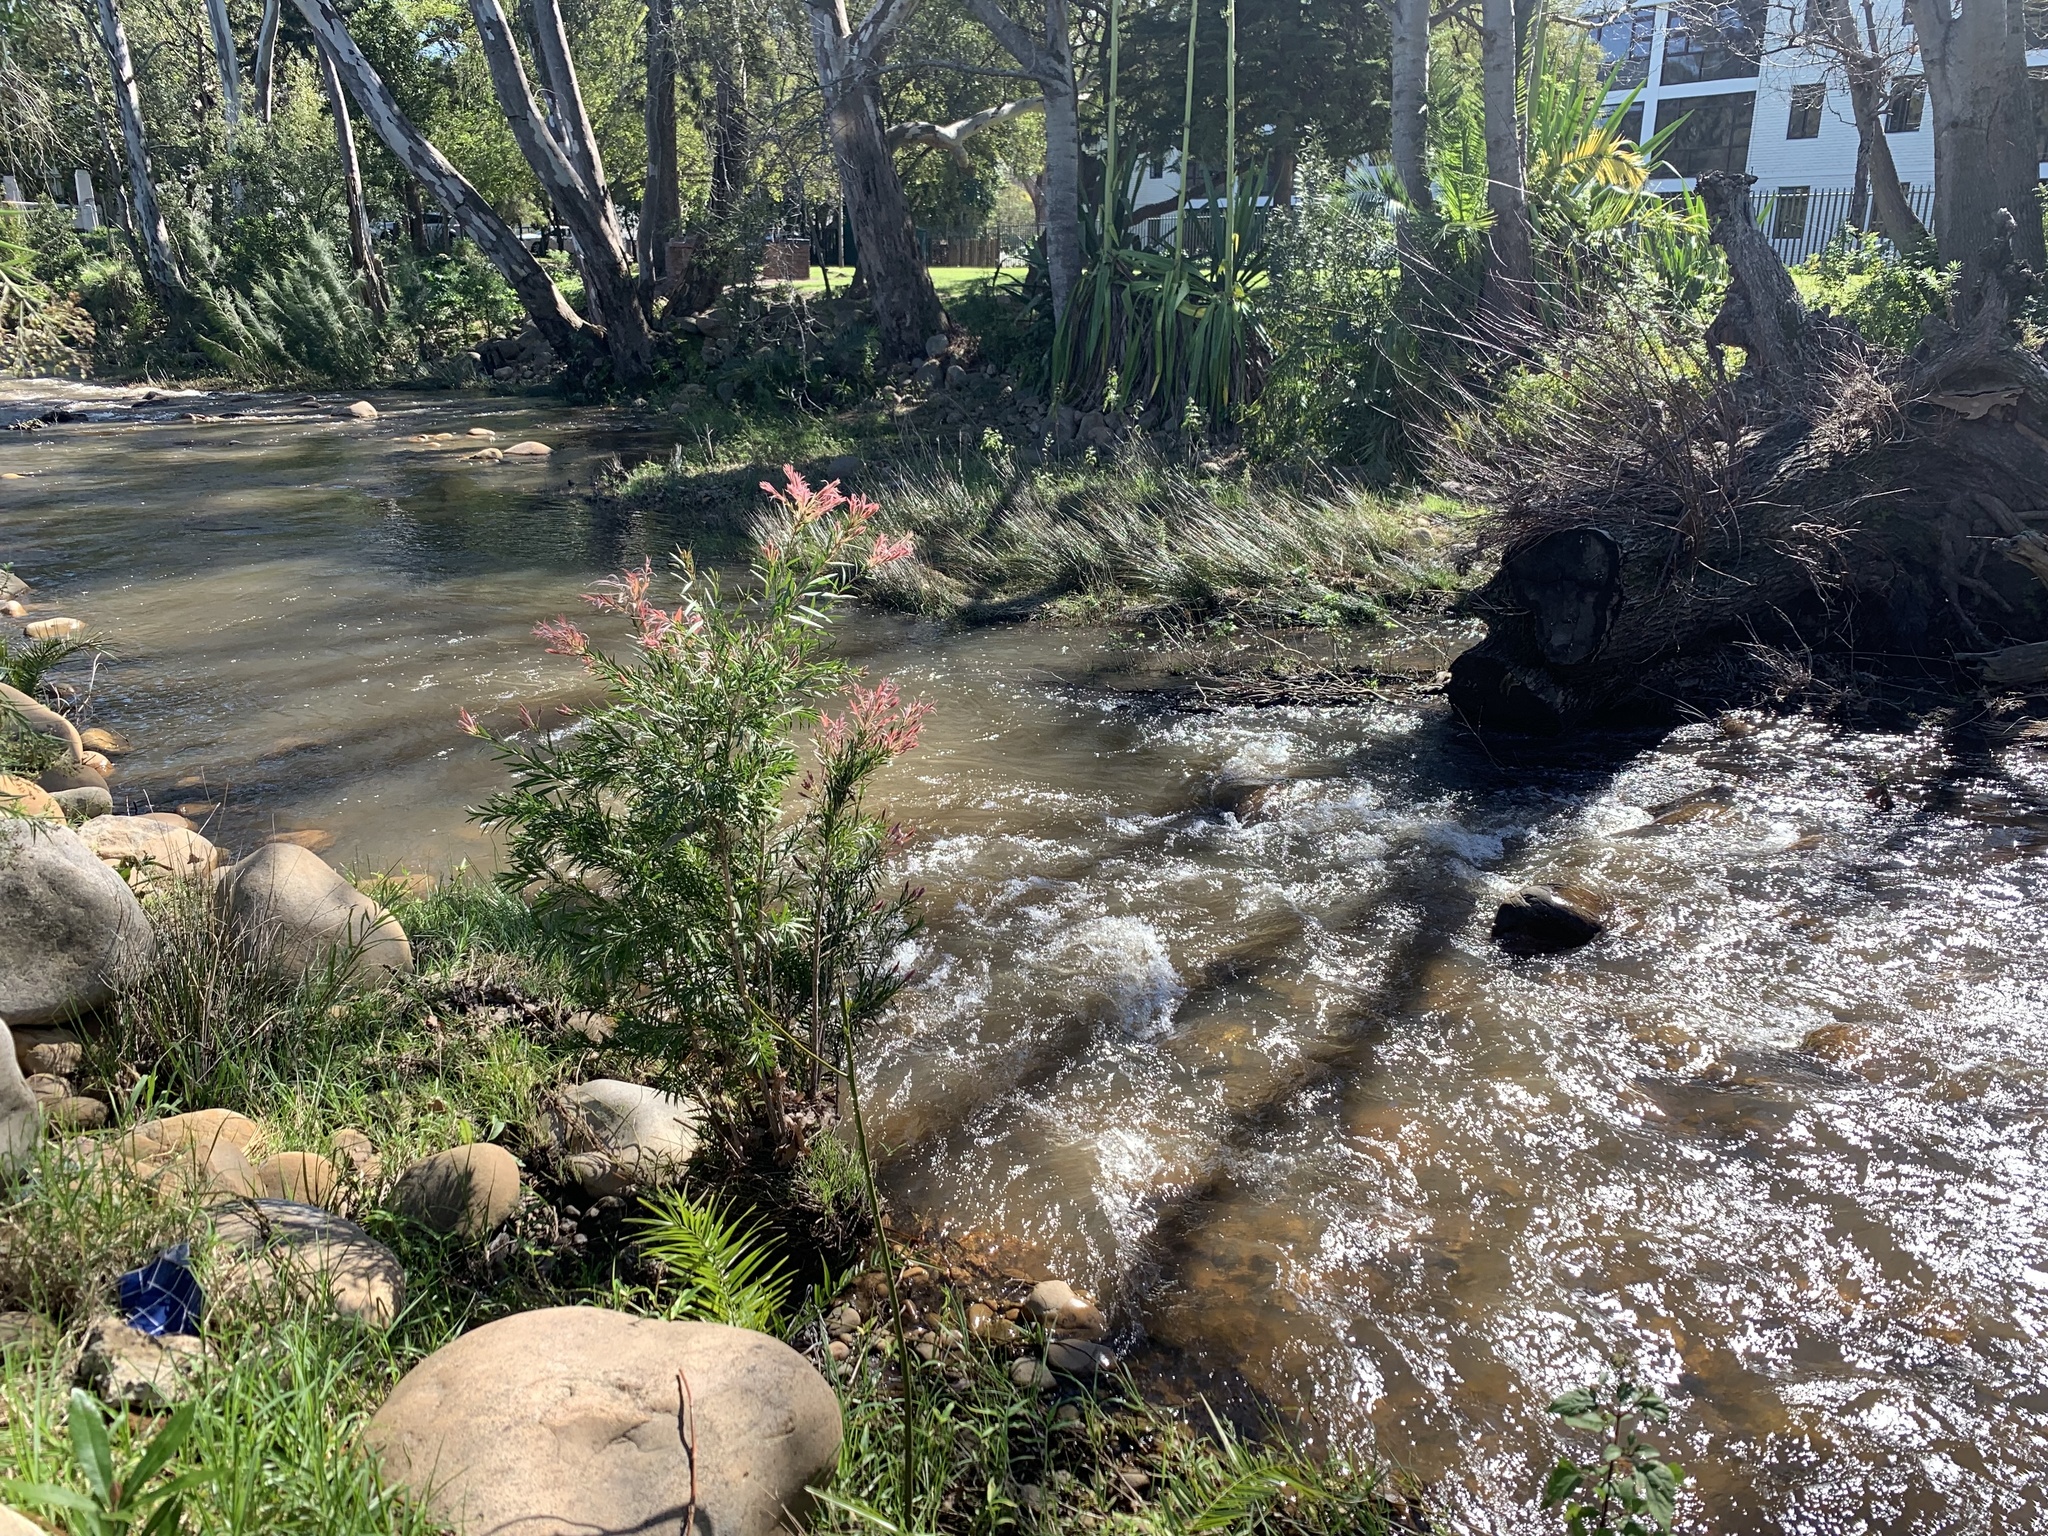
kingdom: Plantae
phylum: Tracheophyta
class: Magnoliopsida
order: Myrtales
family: Myrtaceae
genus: Callistemon
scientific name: Callistemon viminalis
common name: Drooping bottlebrush
